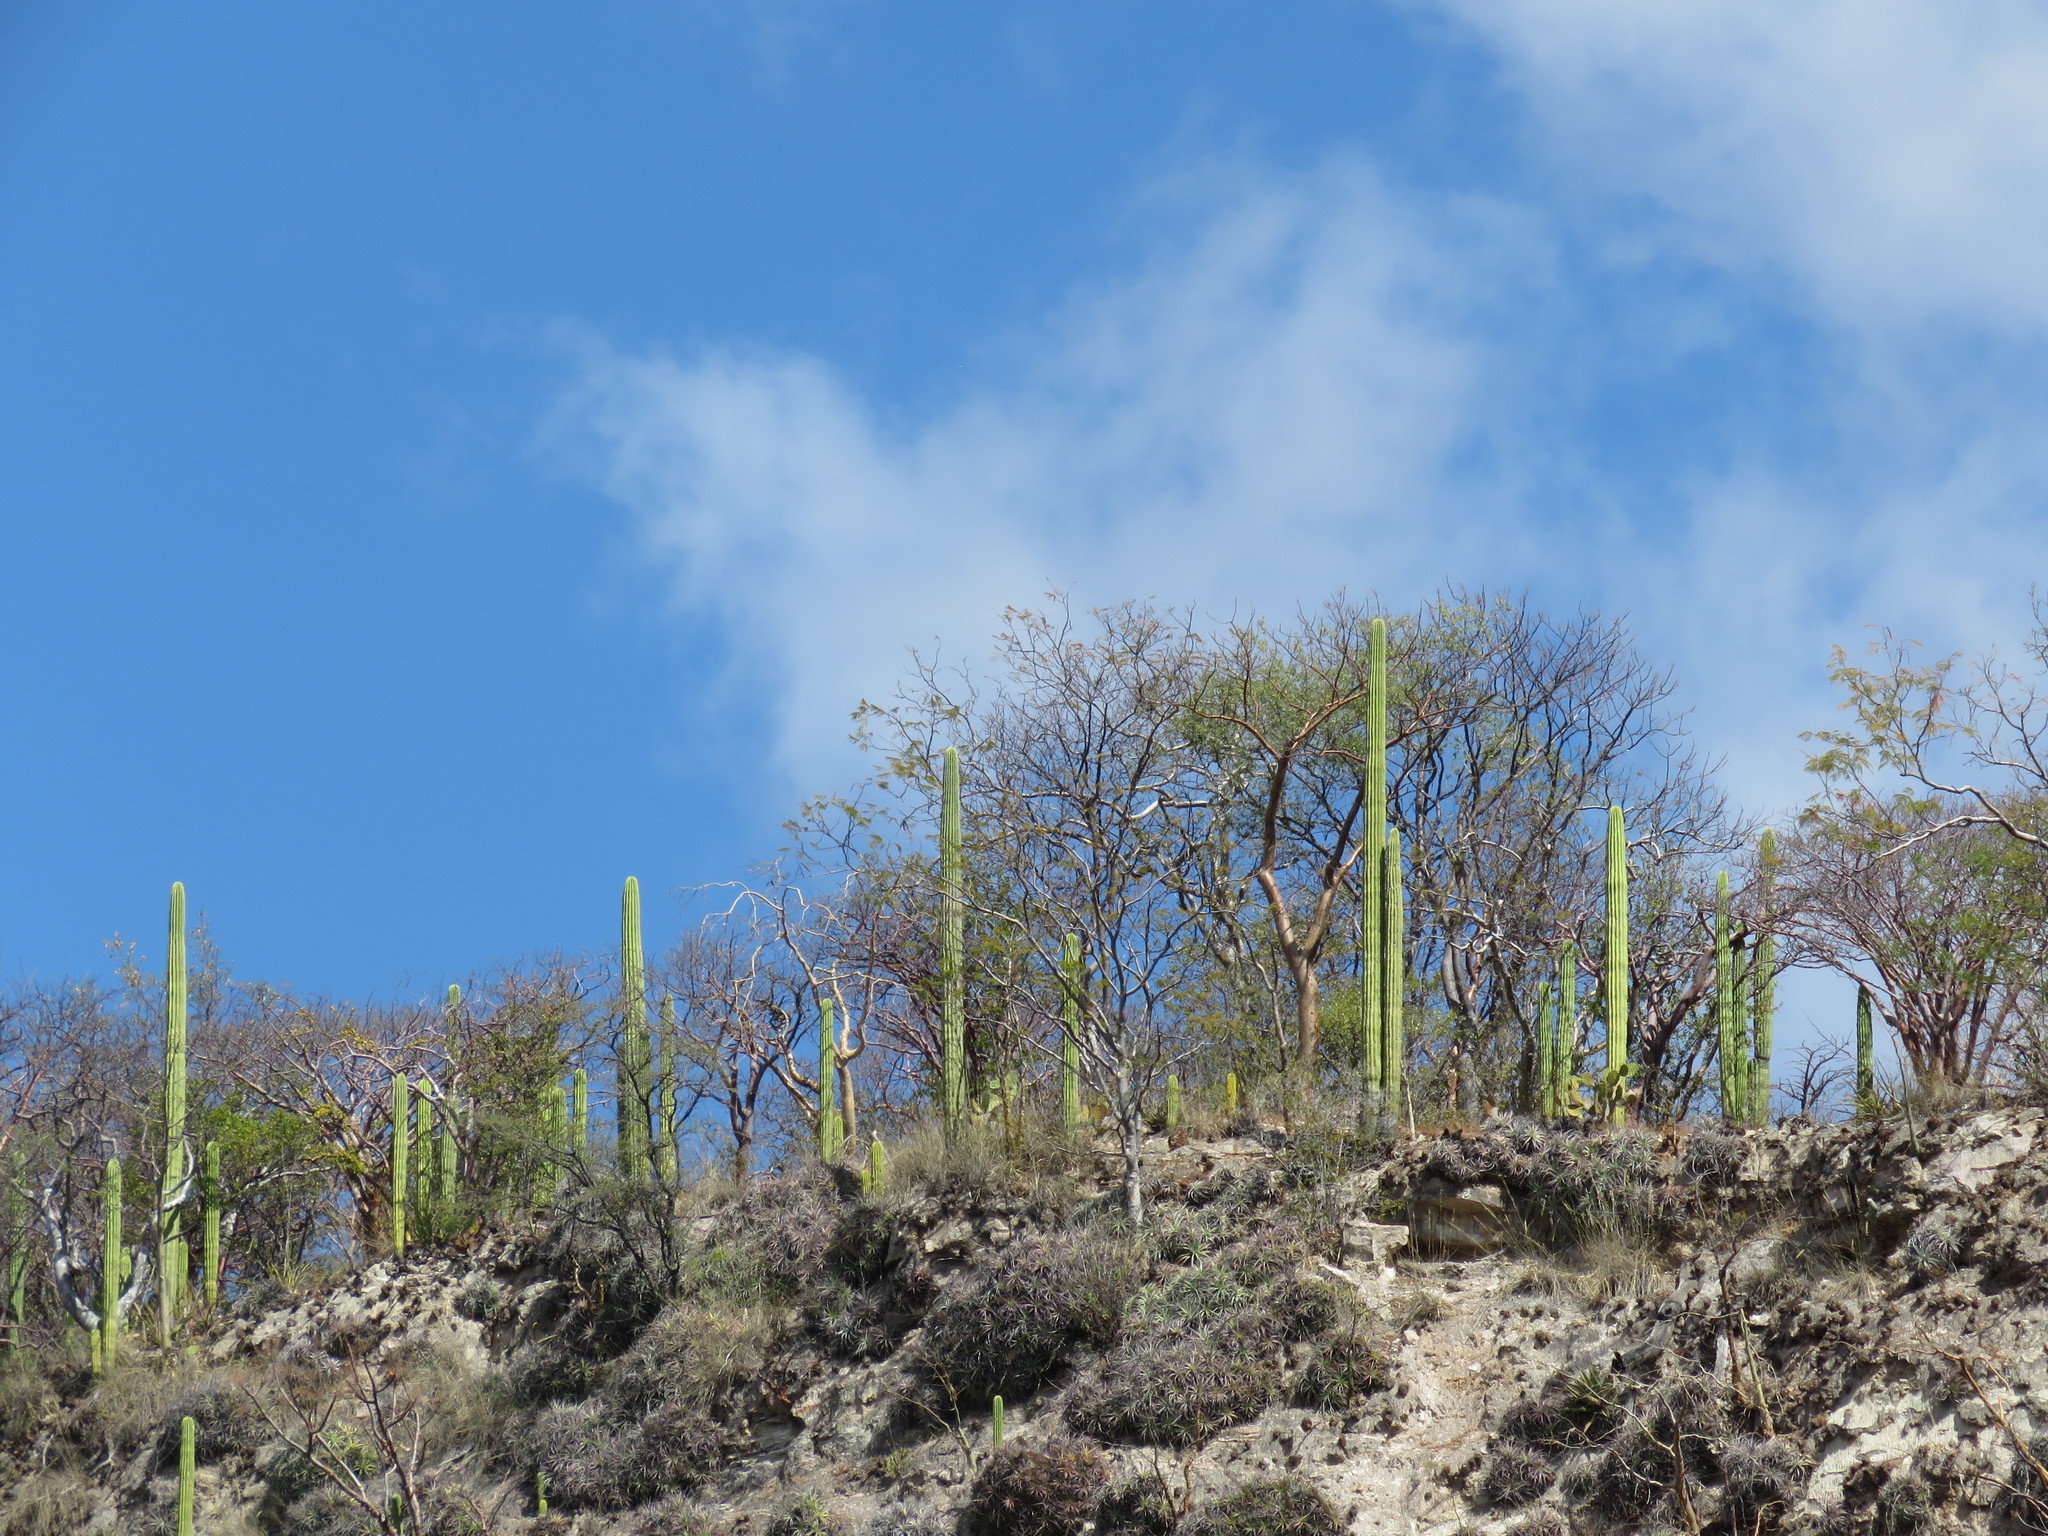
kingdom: Plantae
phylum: Tracheophyta
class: Liliopsida
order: Poales
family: Bromeliaceae
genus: Hechtia
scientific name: Hechtia elegans
